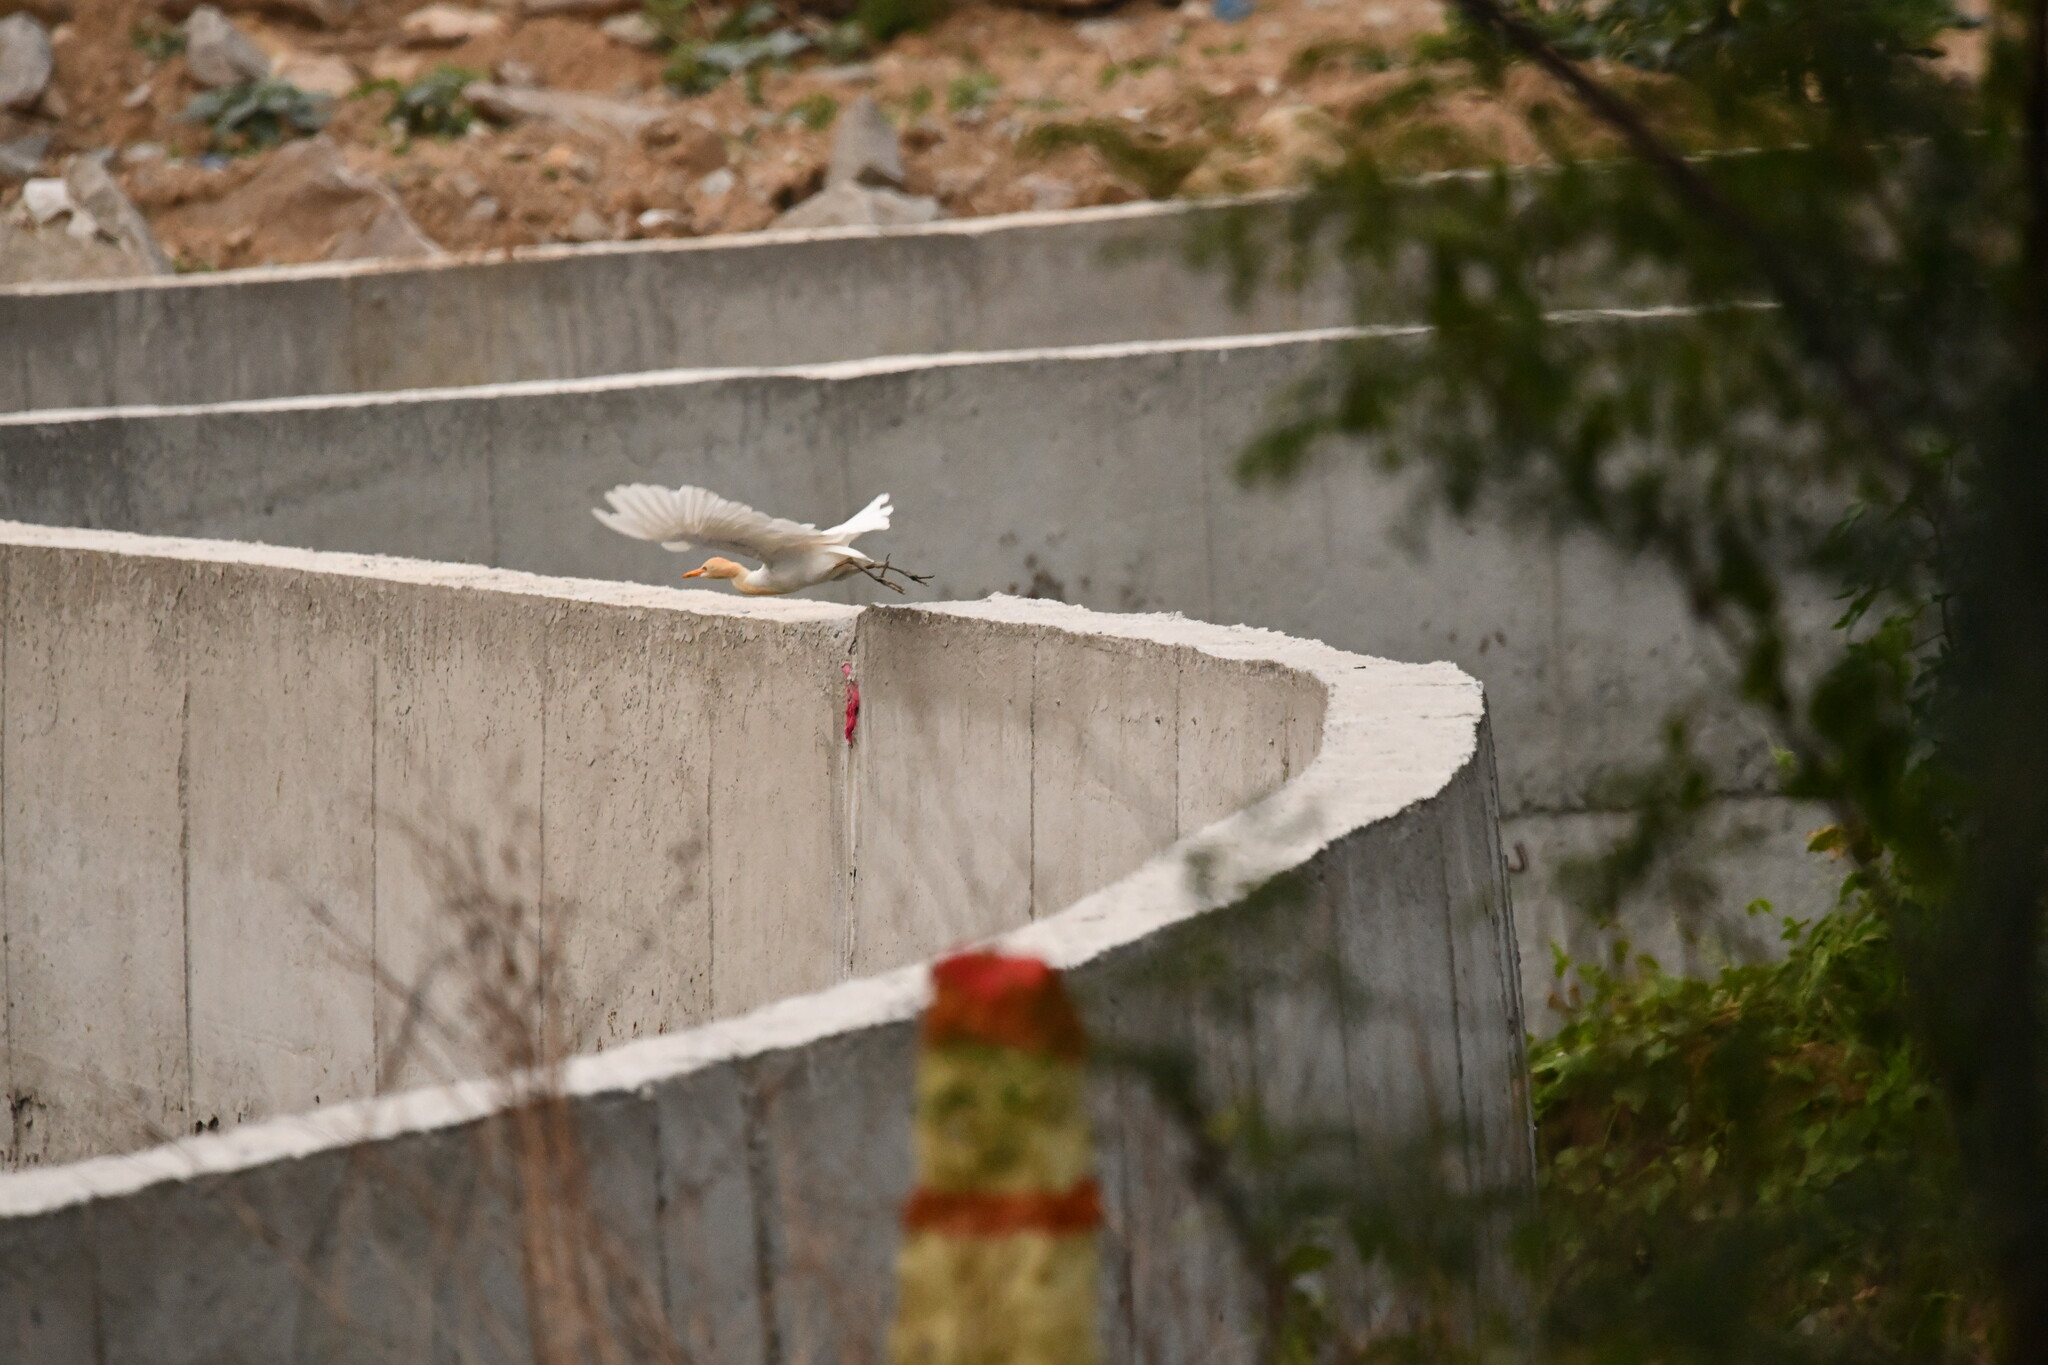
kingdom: Animalia
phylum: Chordata
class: Aves
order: Pelecaniformes
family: Ardeidae
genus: Bubulcus
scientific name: Bubulcus coromandus
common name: Eastern cattle egret
